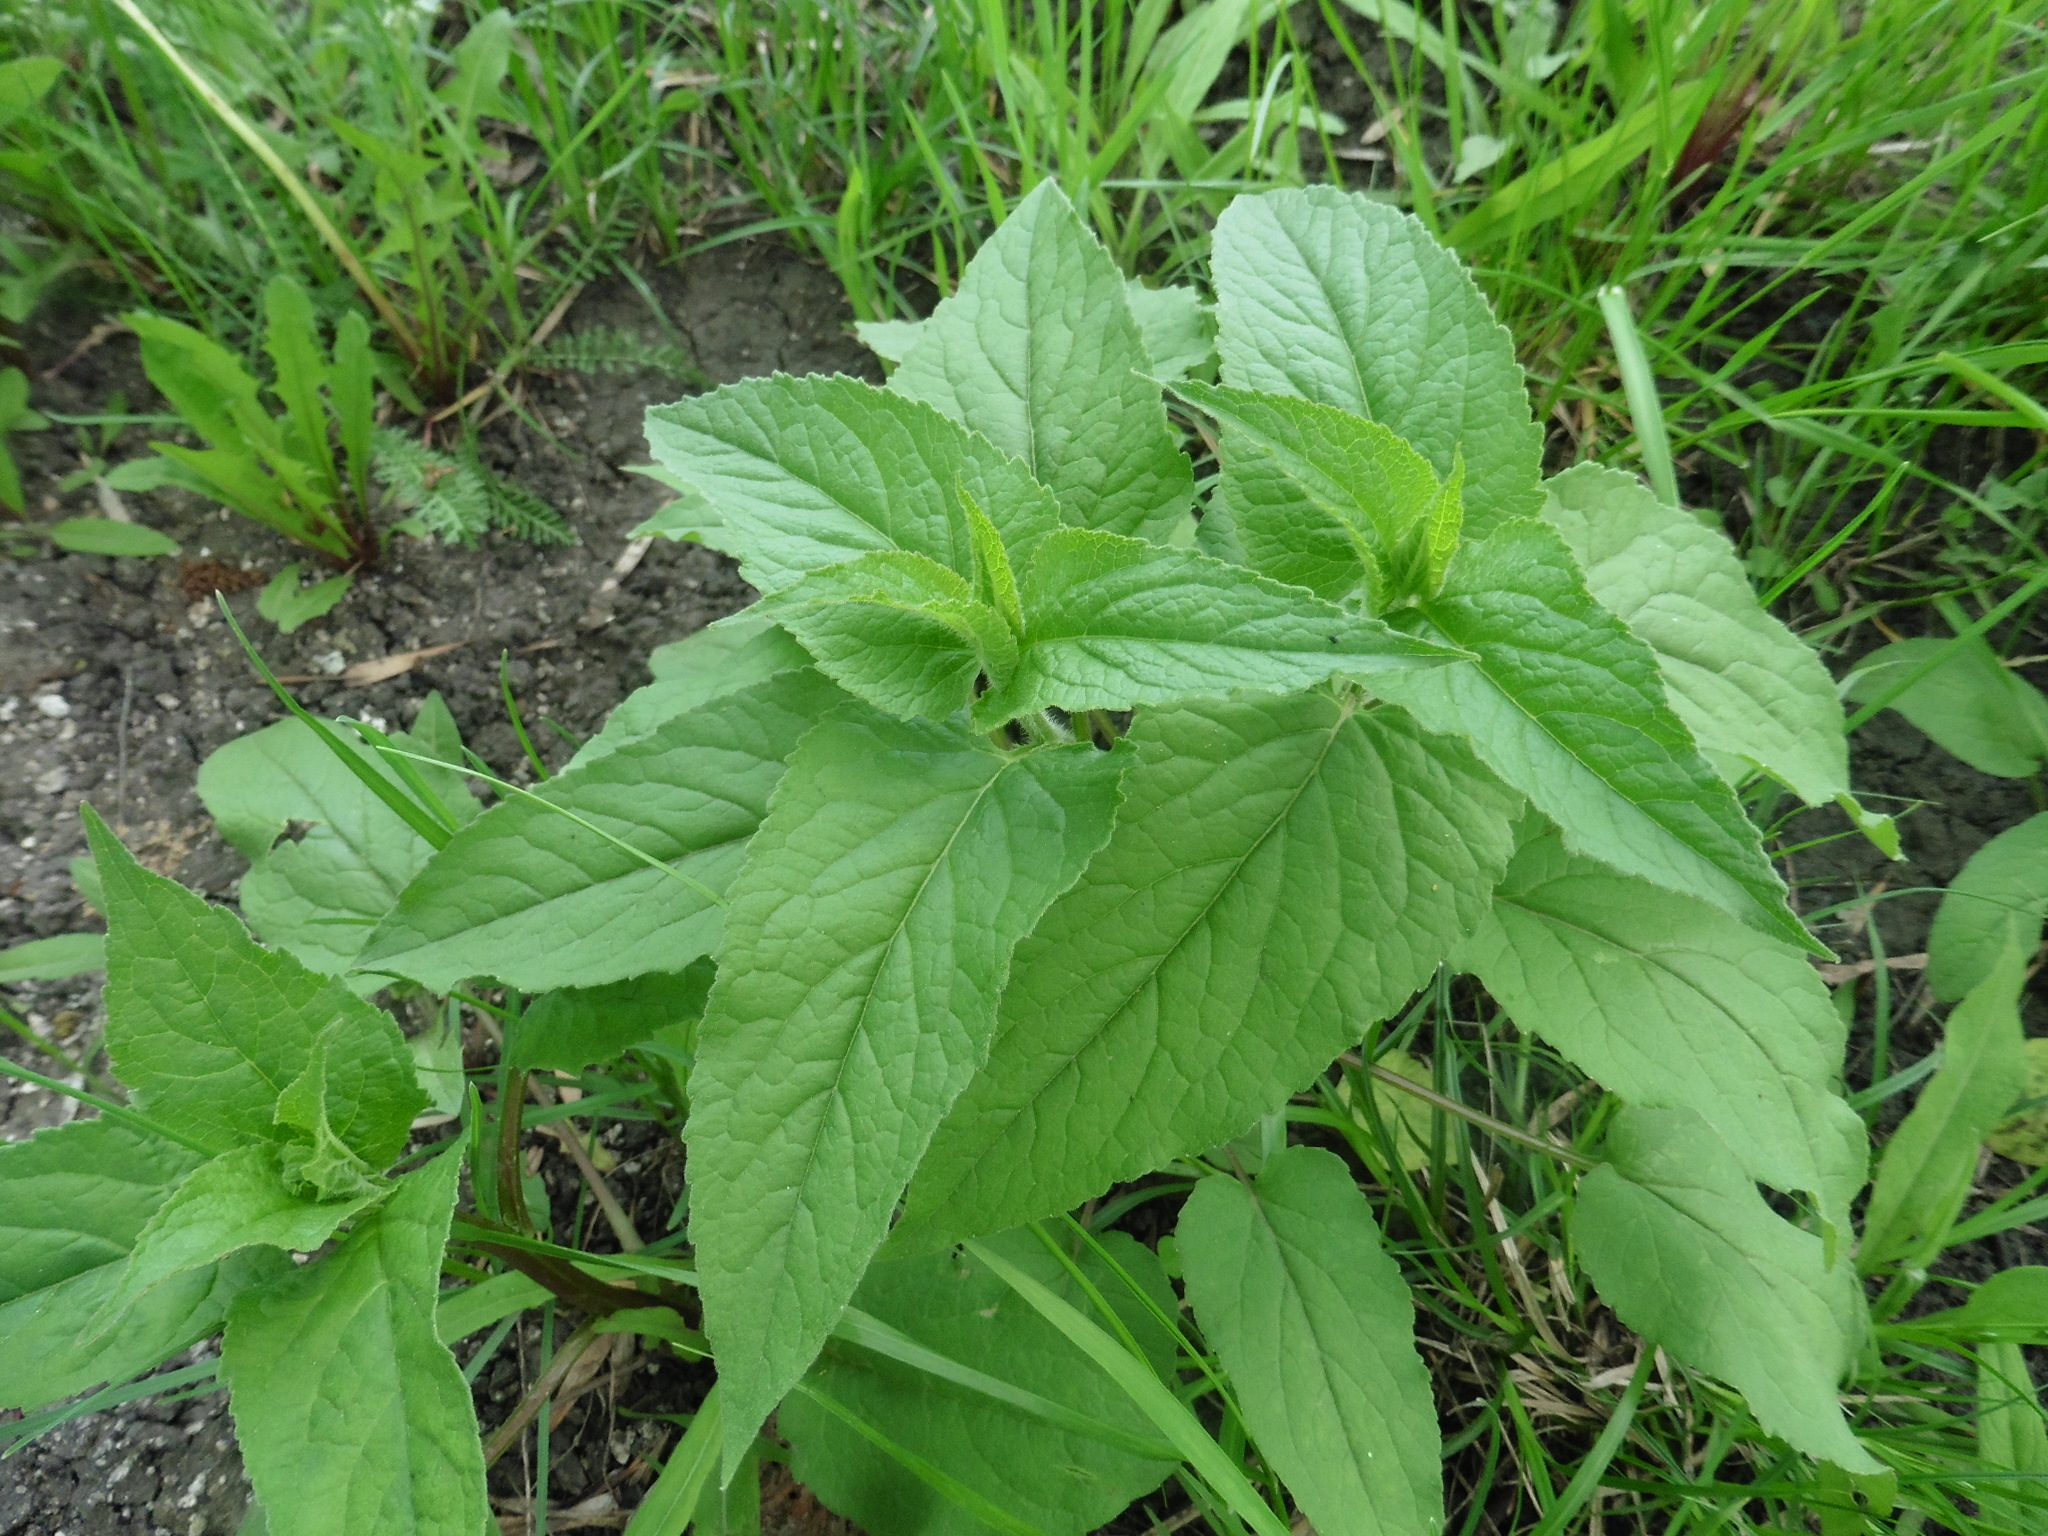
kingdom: Plantae
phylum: Tracheophyta
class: Magnoliopsida
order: Asterales
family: Campanulaceae
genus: Campanula
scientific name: Campanula rapunculoides
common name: Creeping bellflower
